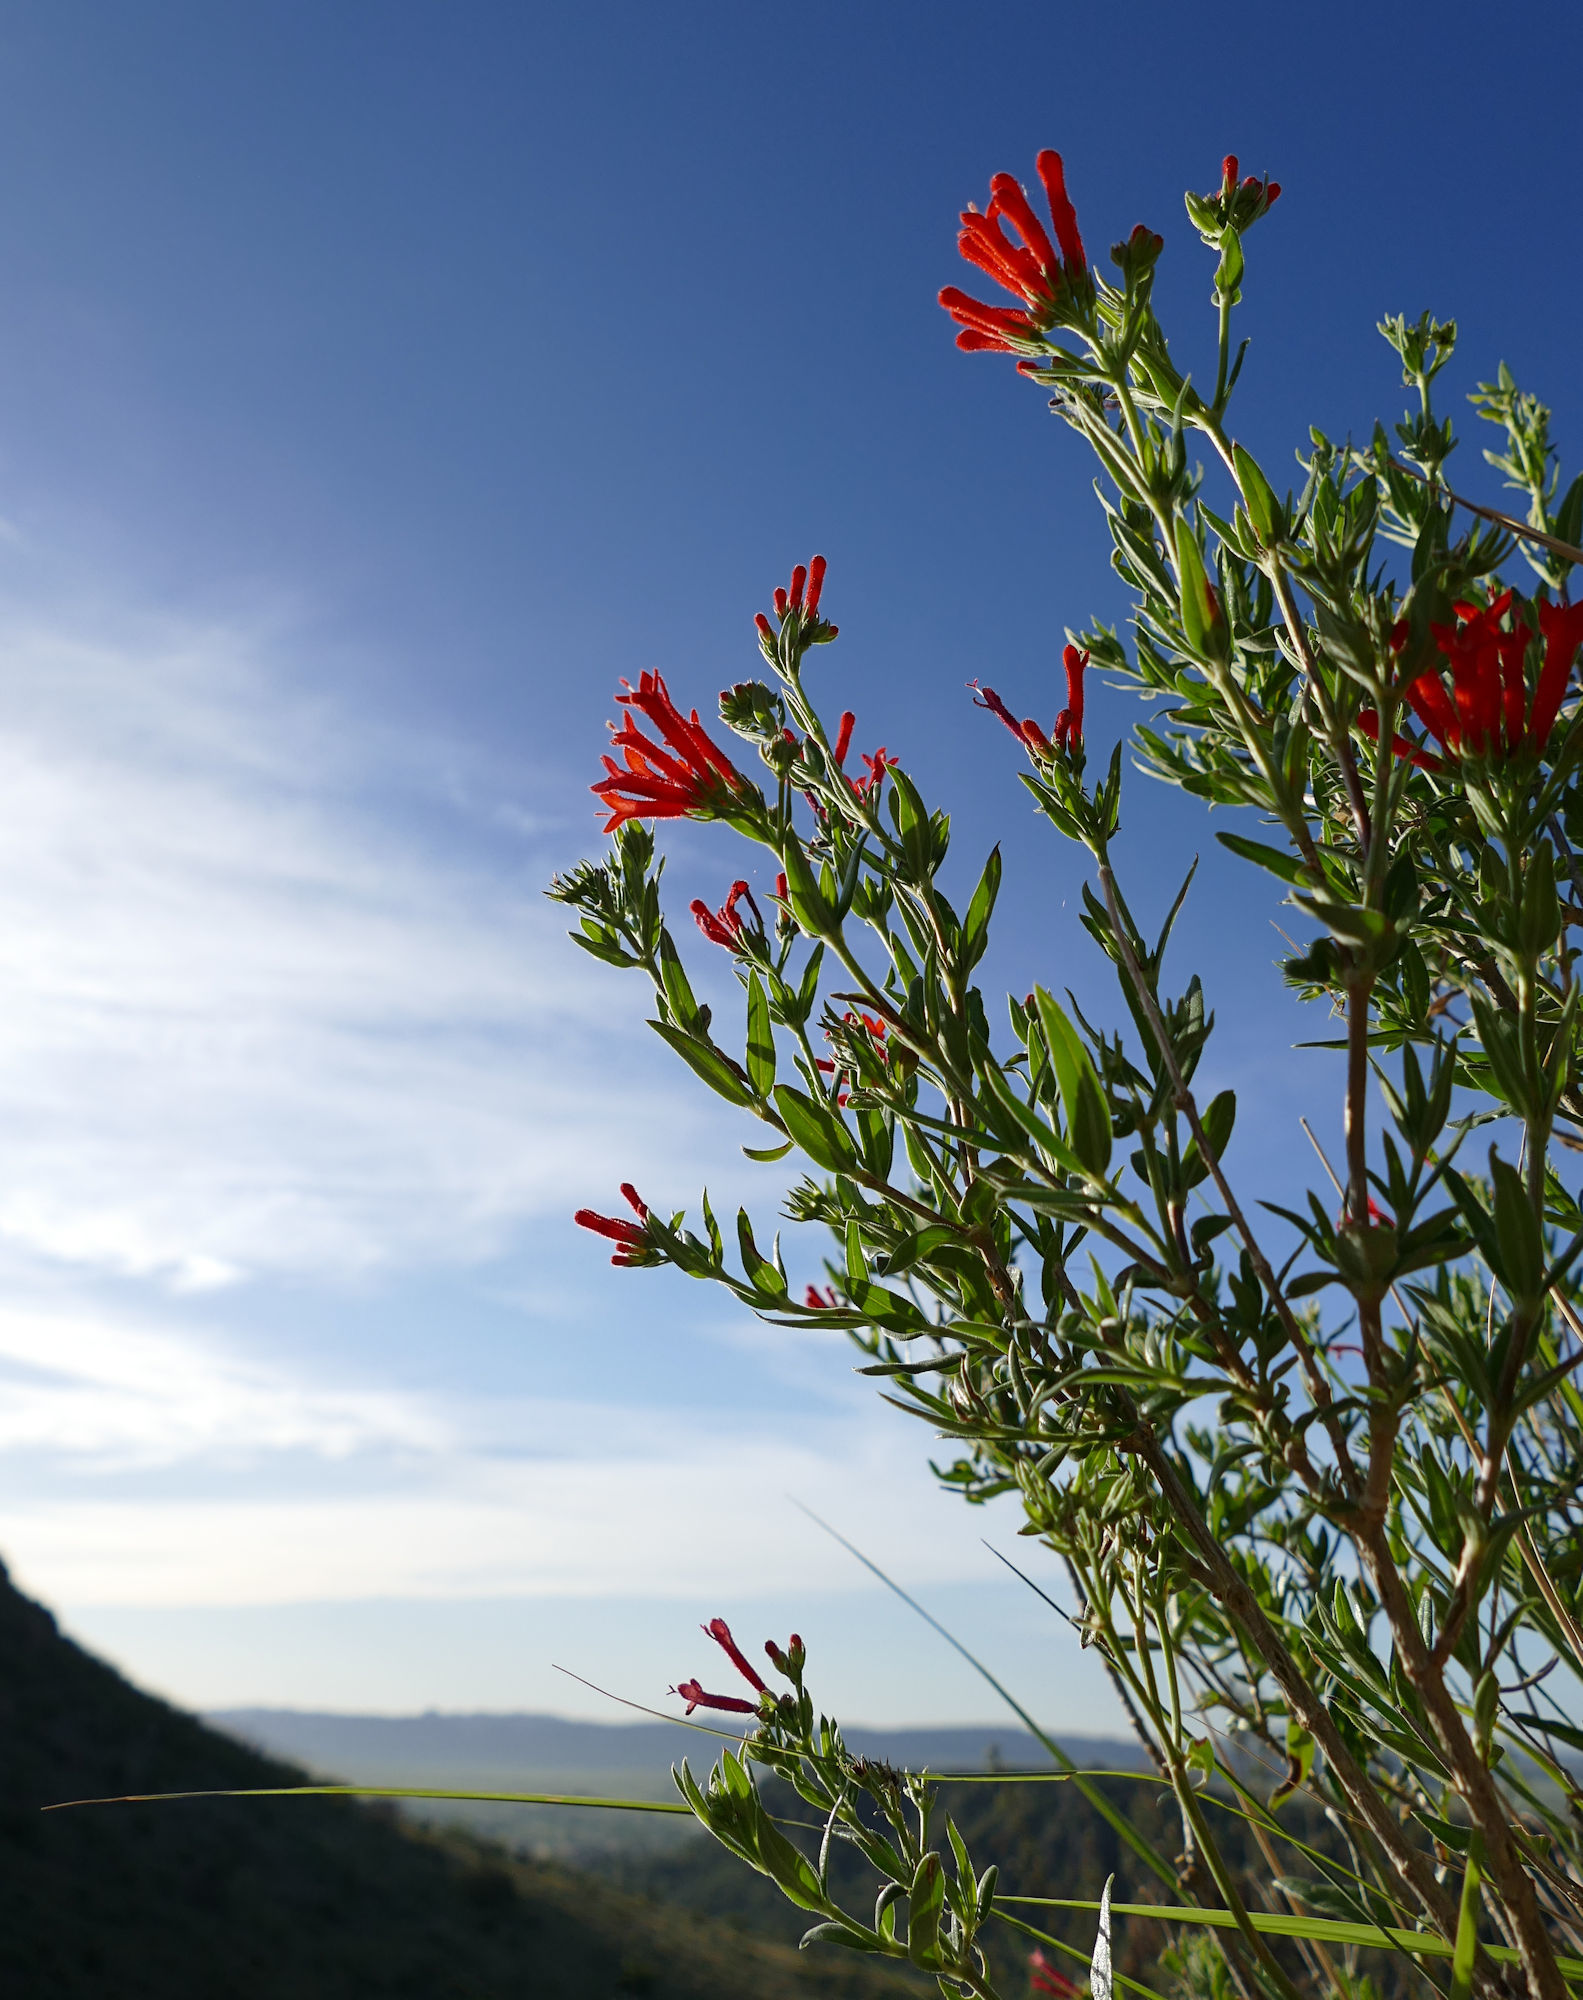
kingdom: Plantae
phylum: Tracheophyta
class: Magnoliopsida
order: Gentianales
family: Rubiaceae
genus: Bouvardia
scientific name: Bouvardia ternifolia
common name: Scarlet bouvardia
